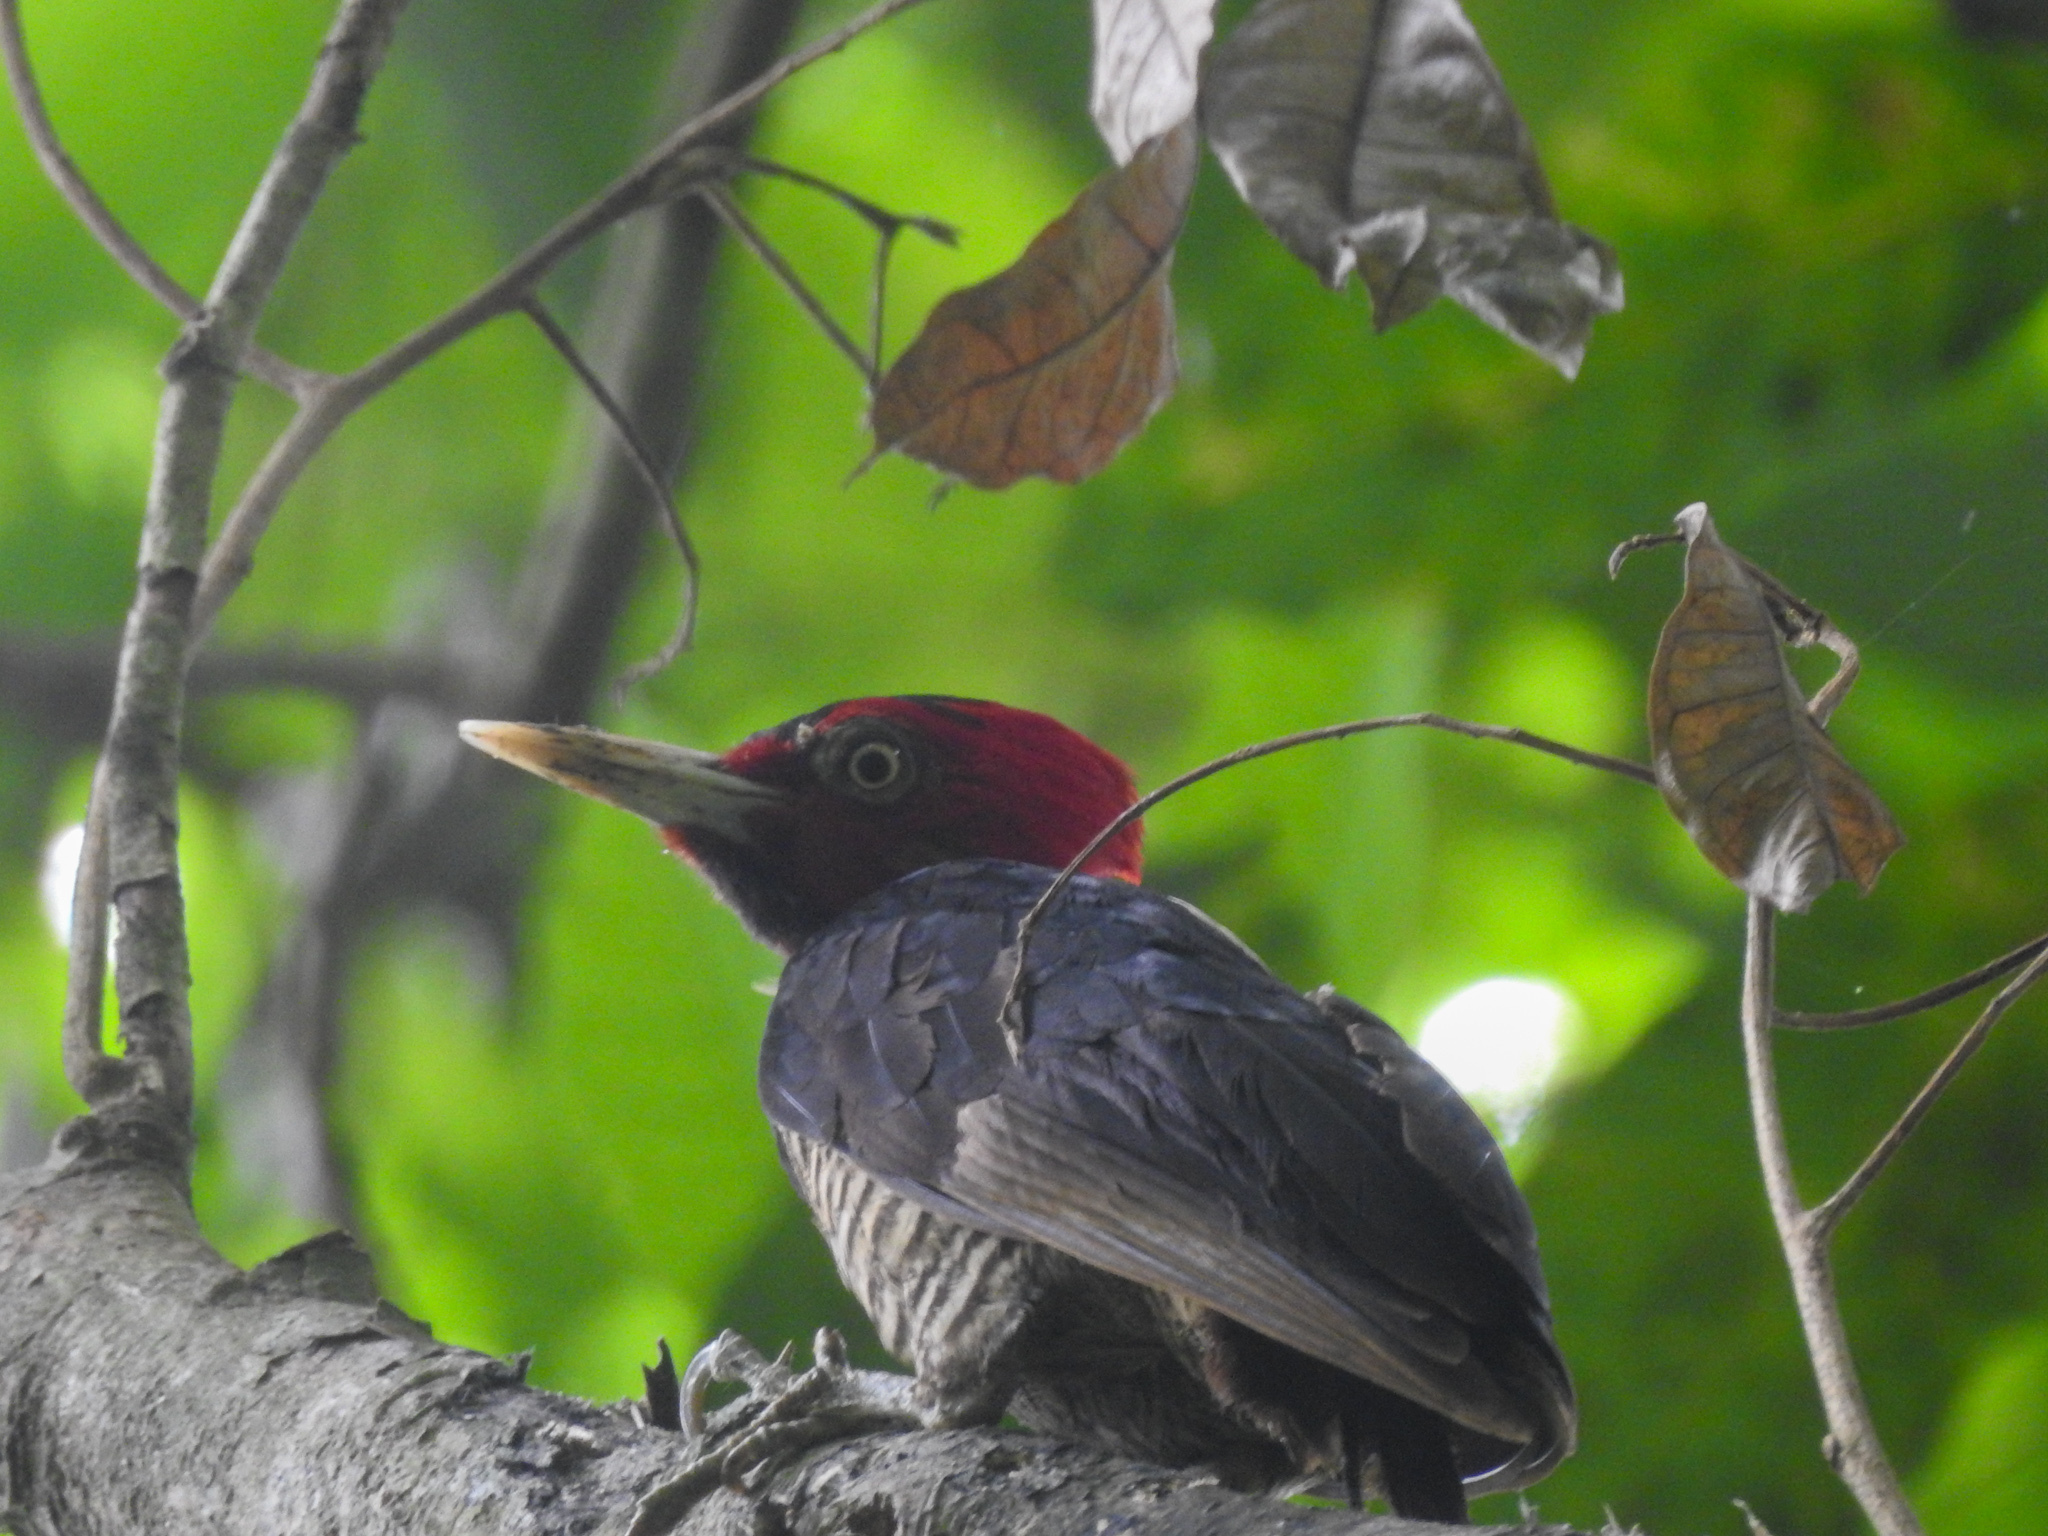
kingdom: Animalia
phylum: Chordata
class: Aves
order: Piciformes
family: Picidae
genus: Campephilus
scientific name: Campephilus guatemalensis
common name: Pale-billed woodpecker
